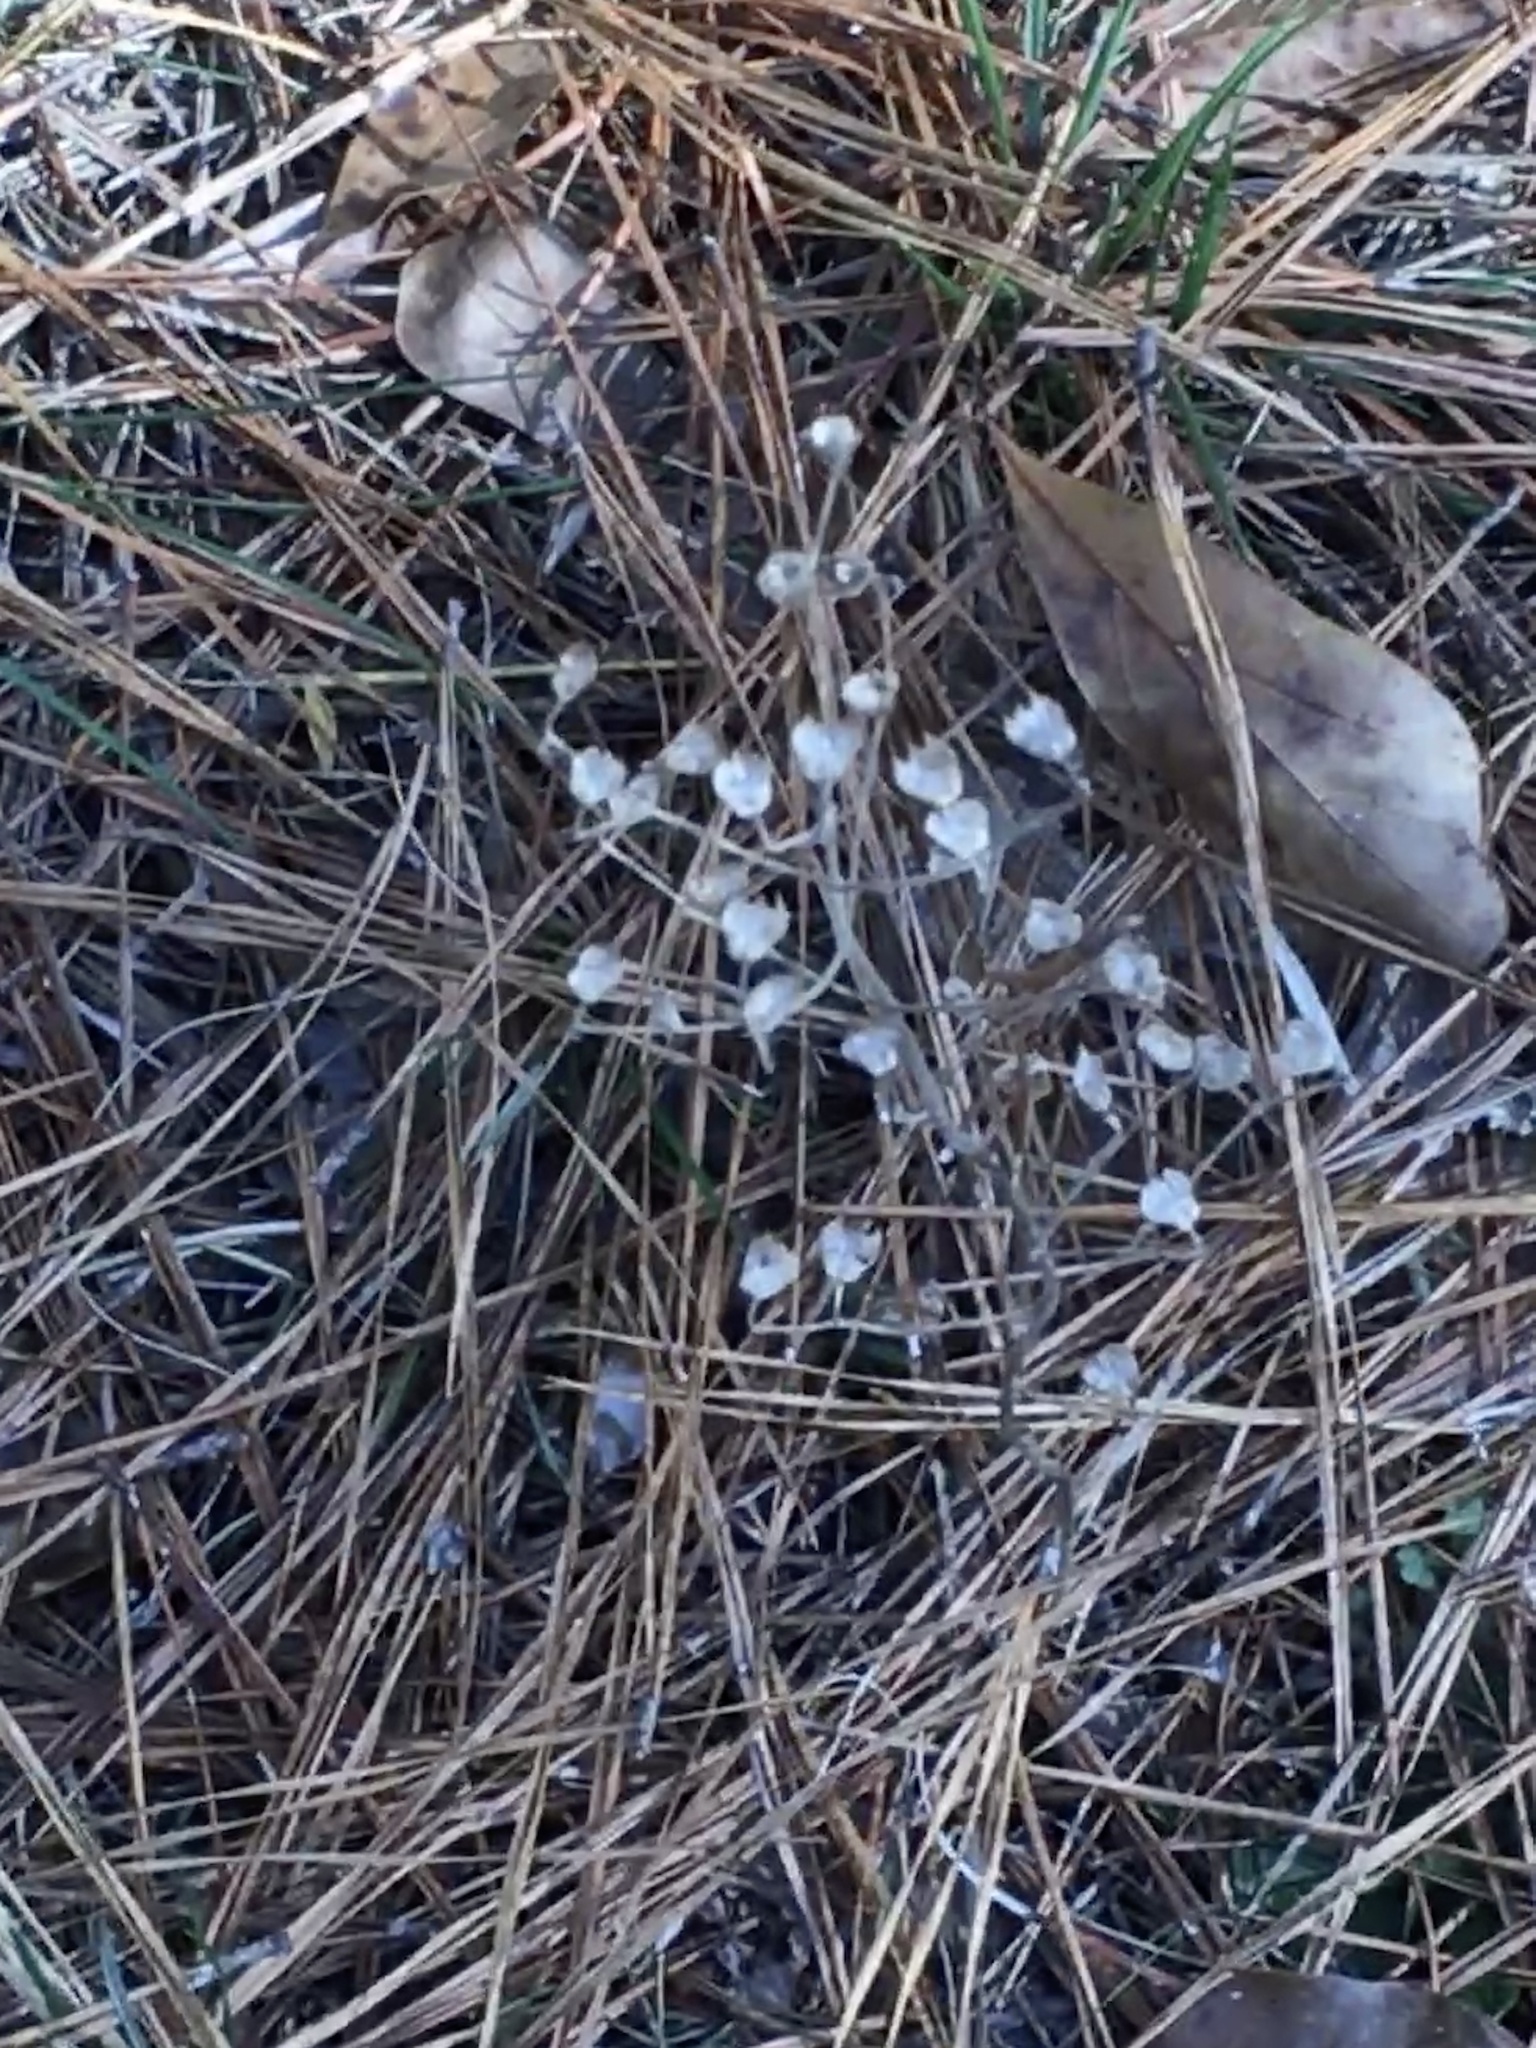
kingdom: Plantae
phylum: Tracheophyta
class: Magnoliopsida
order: Lamiales
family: Lamiaceae
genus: Trichostema
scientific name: Trichostema dichotomum
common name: Bastard pennyroyal
